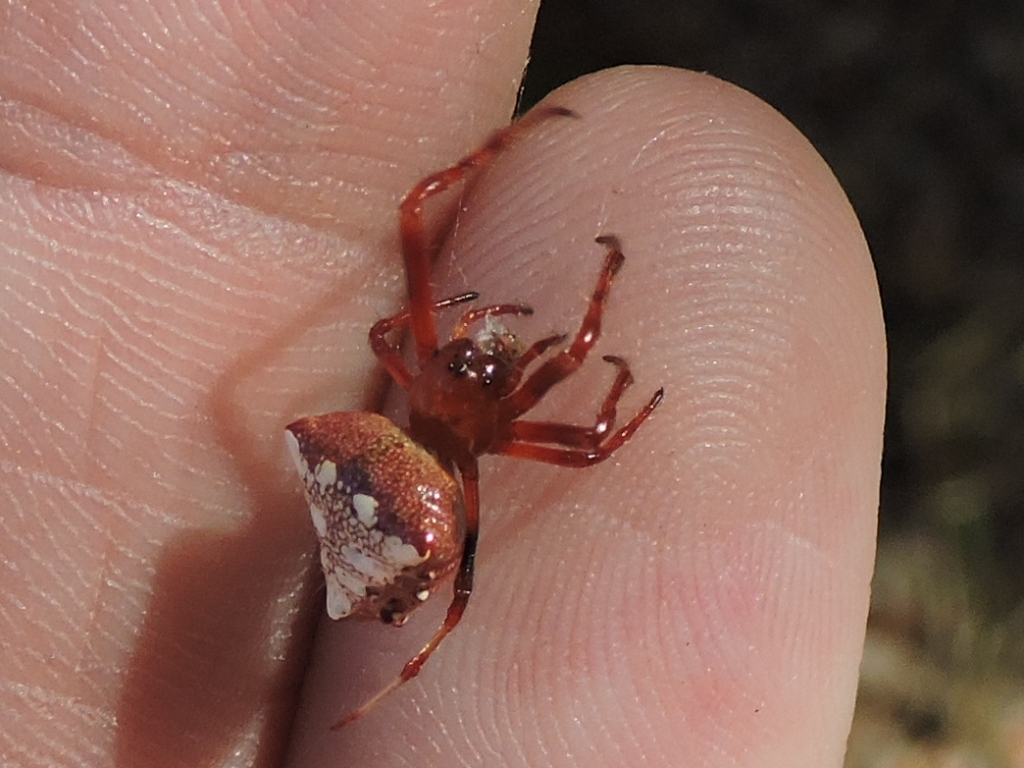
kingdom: Animalia
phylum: Arthropoda
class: Arachnida
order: Araneae
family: Araneidae
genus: Verrucosa
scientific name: Verrucosa arenata
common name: Orb weavers
